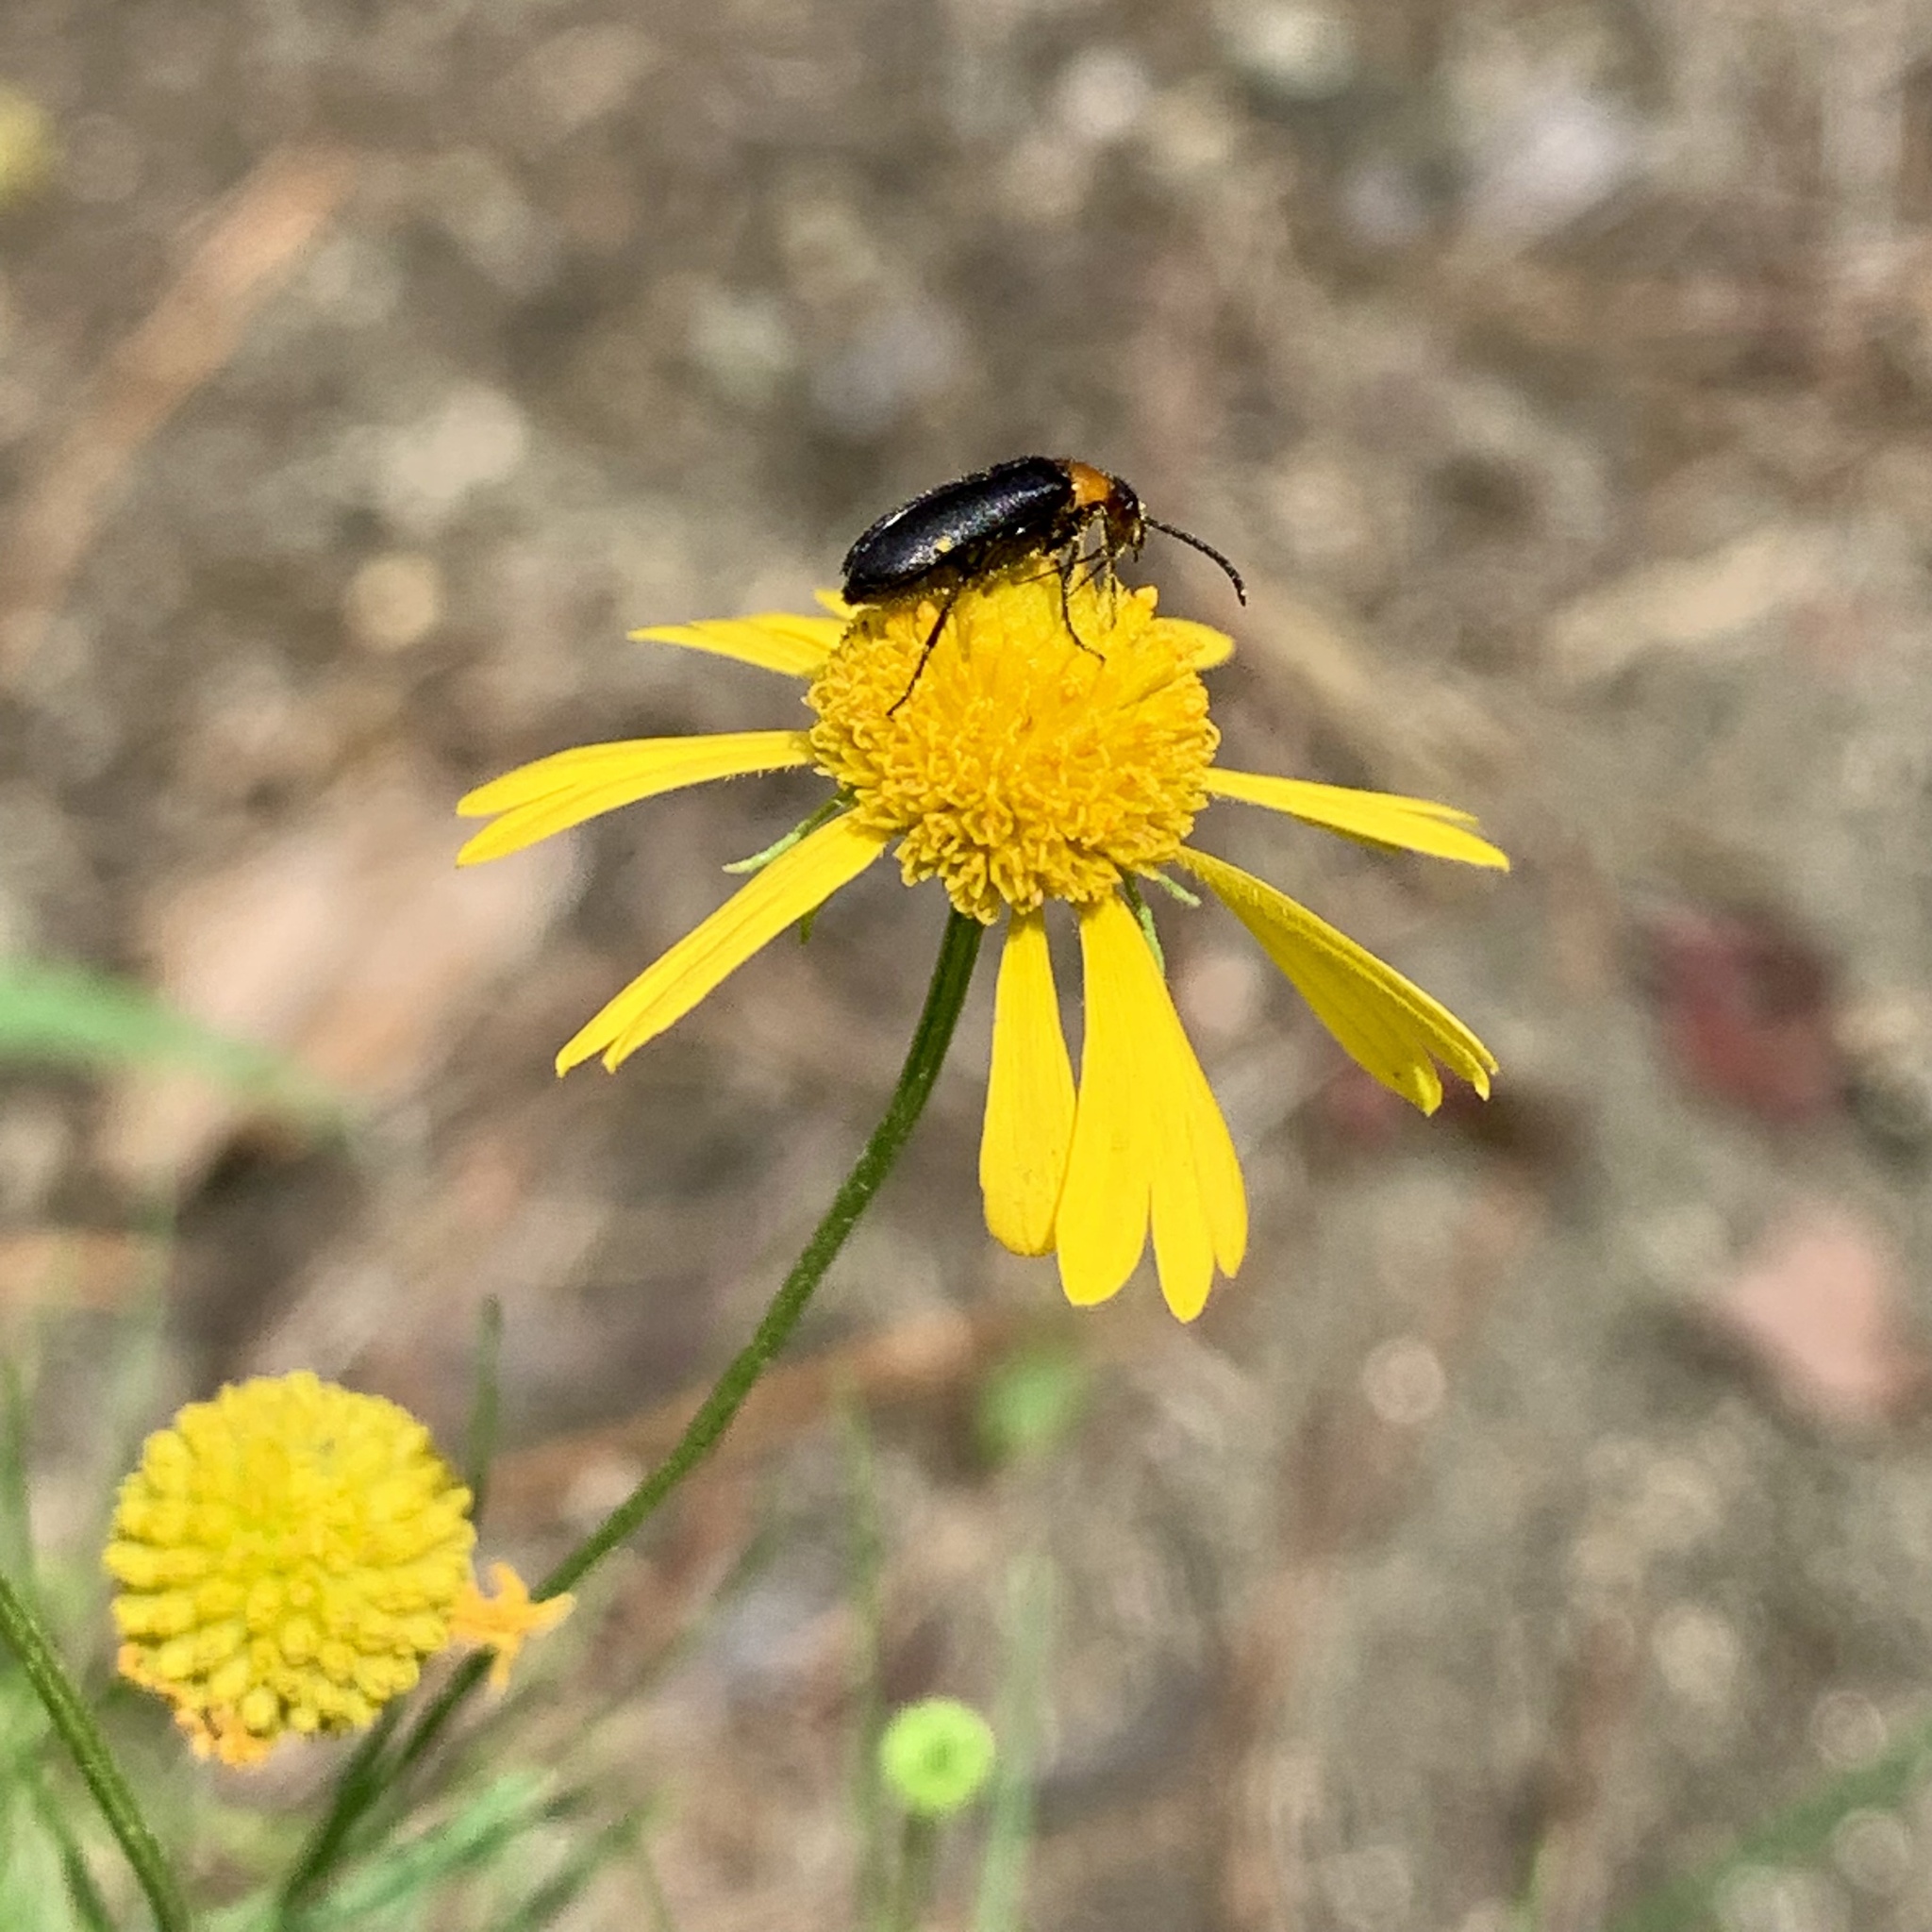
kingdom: Plantae
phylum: Tracheophyta
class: Magnoliopsida
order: Asterales
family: Asteraceae
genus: Helenium
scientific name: Helenium amarum
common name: Bitter sneezeweed
